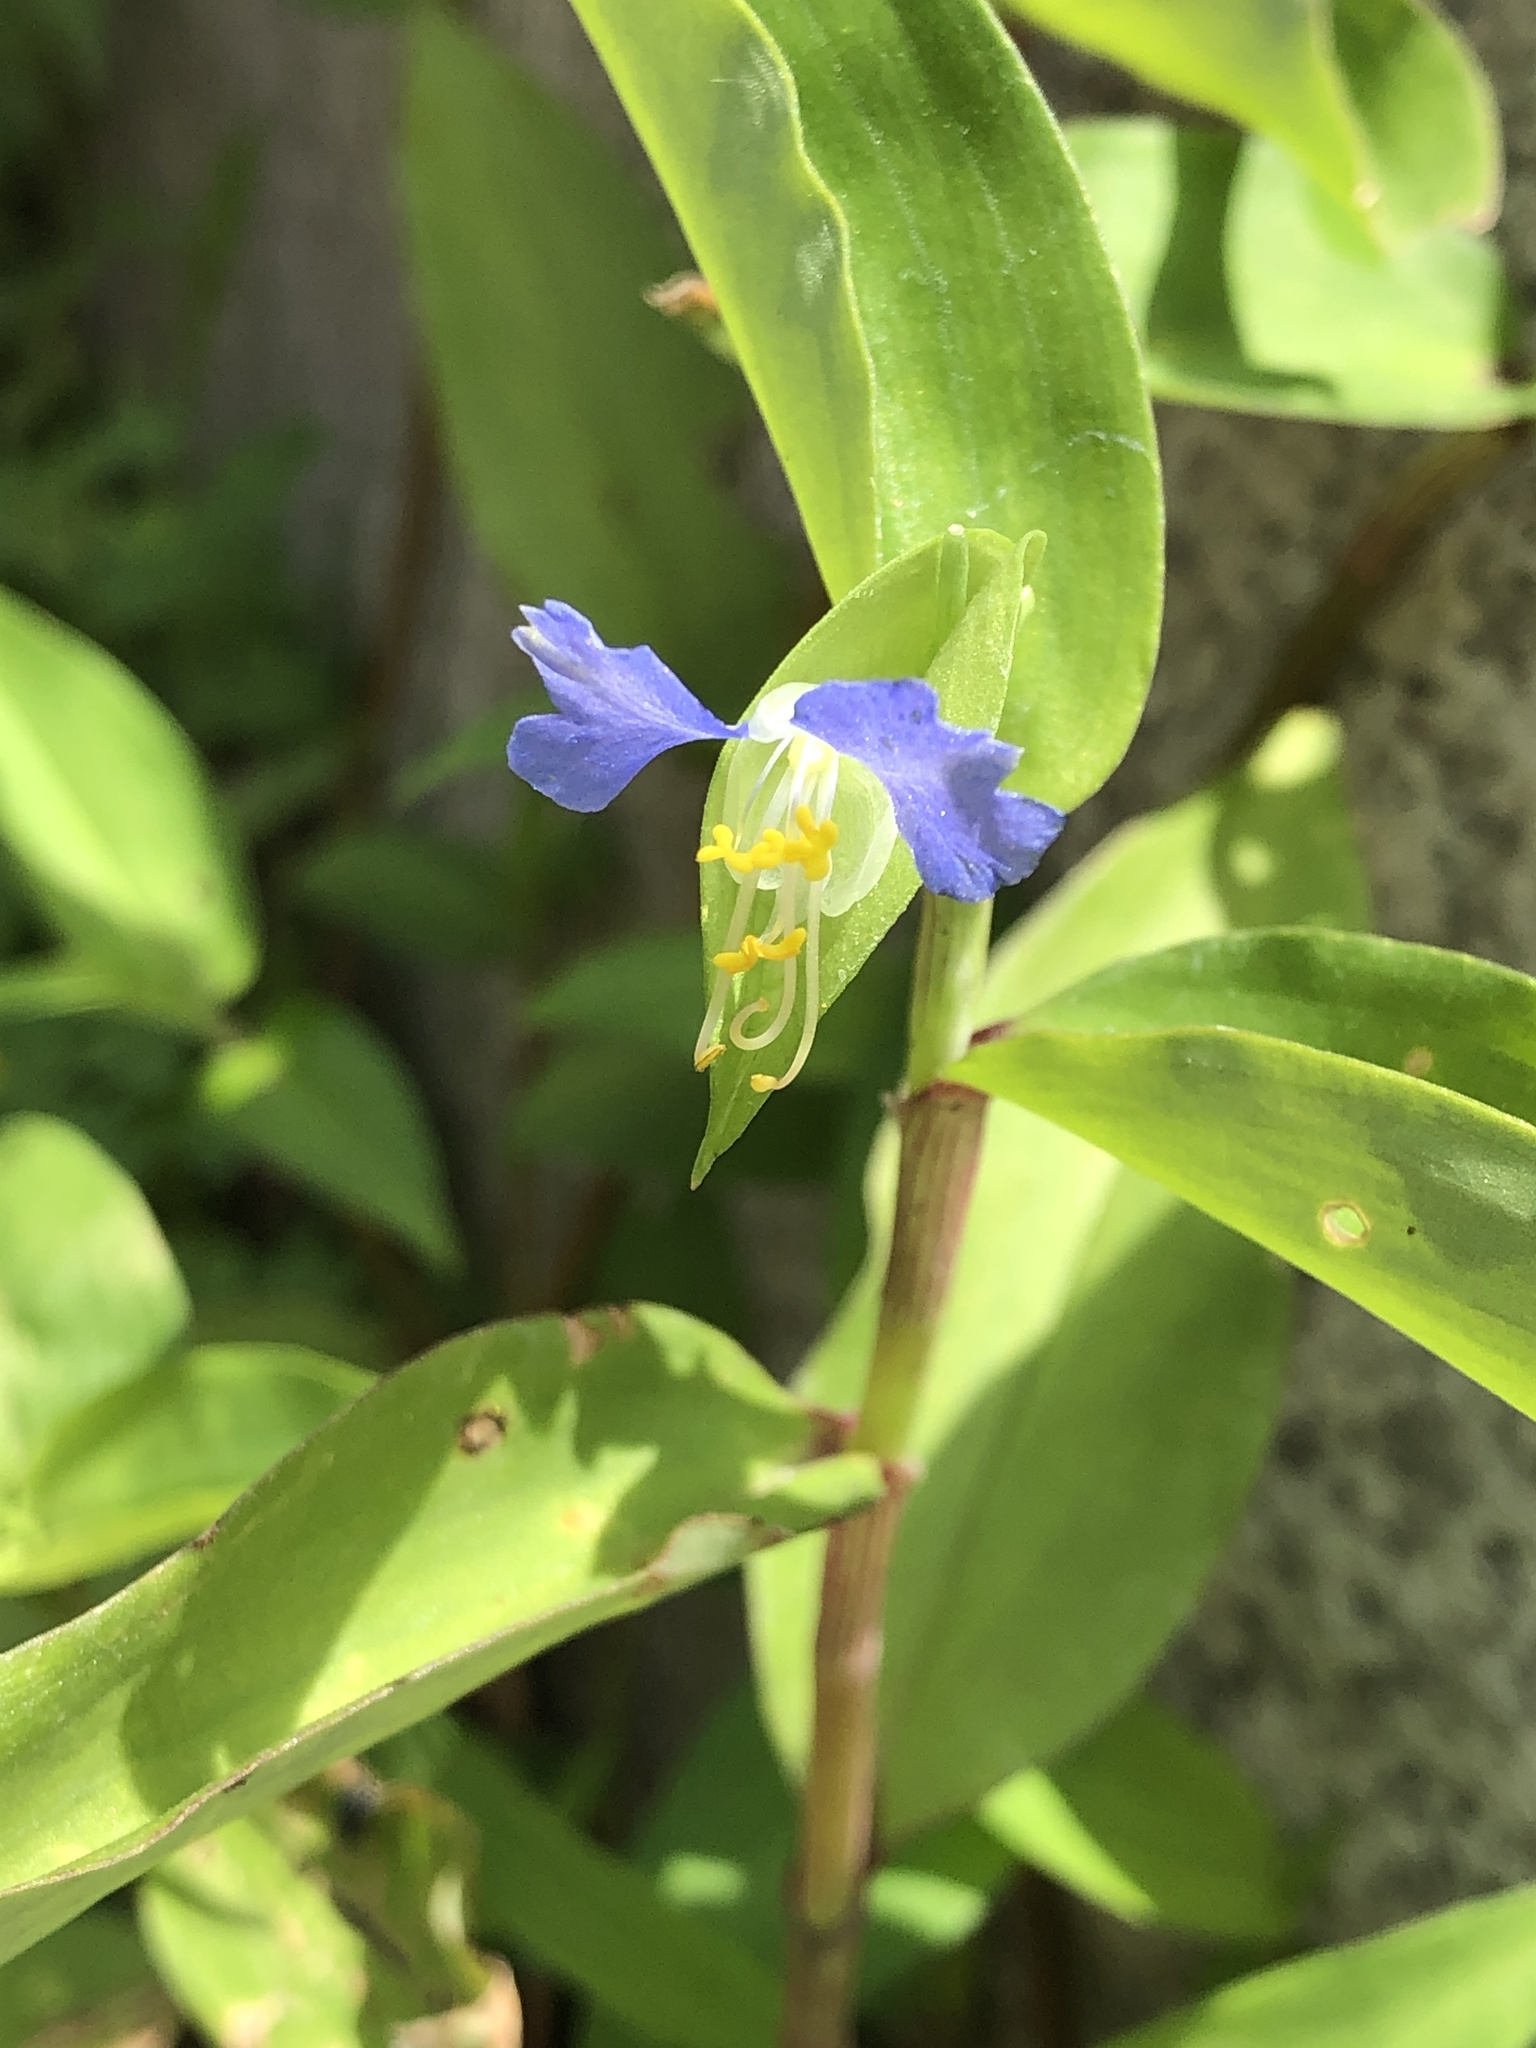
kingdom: Plantae
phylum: Tracheophyta
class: Liliopsida
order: Commelinales
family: Commelinaceae
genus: Commelina
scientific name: Commelina communis
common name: Asiatic dayflower
